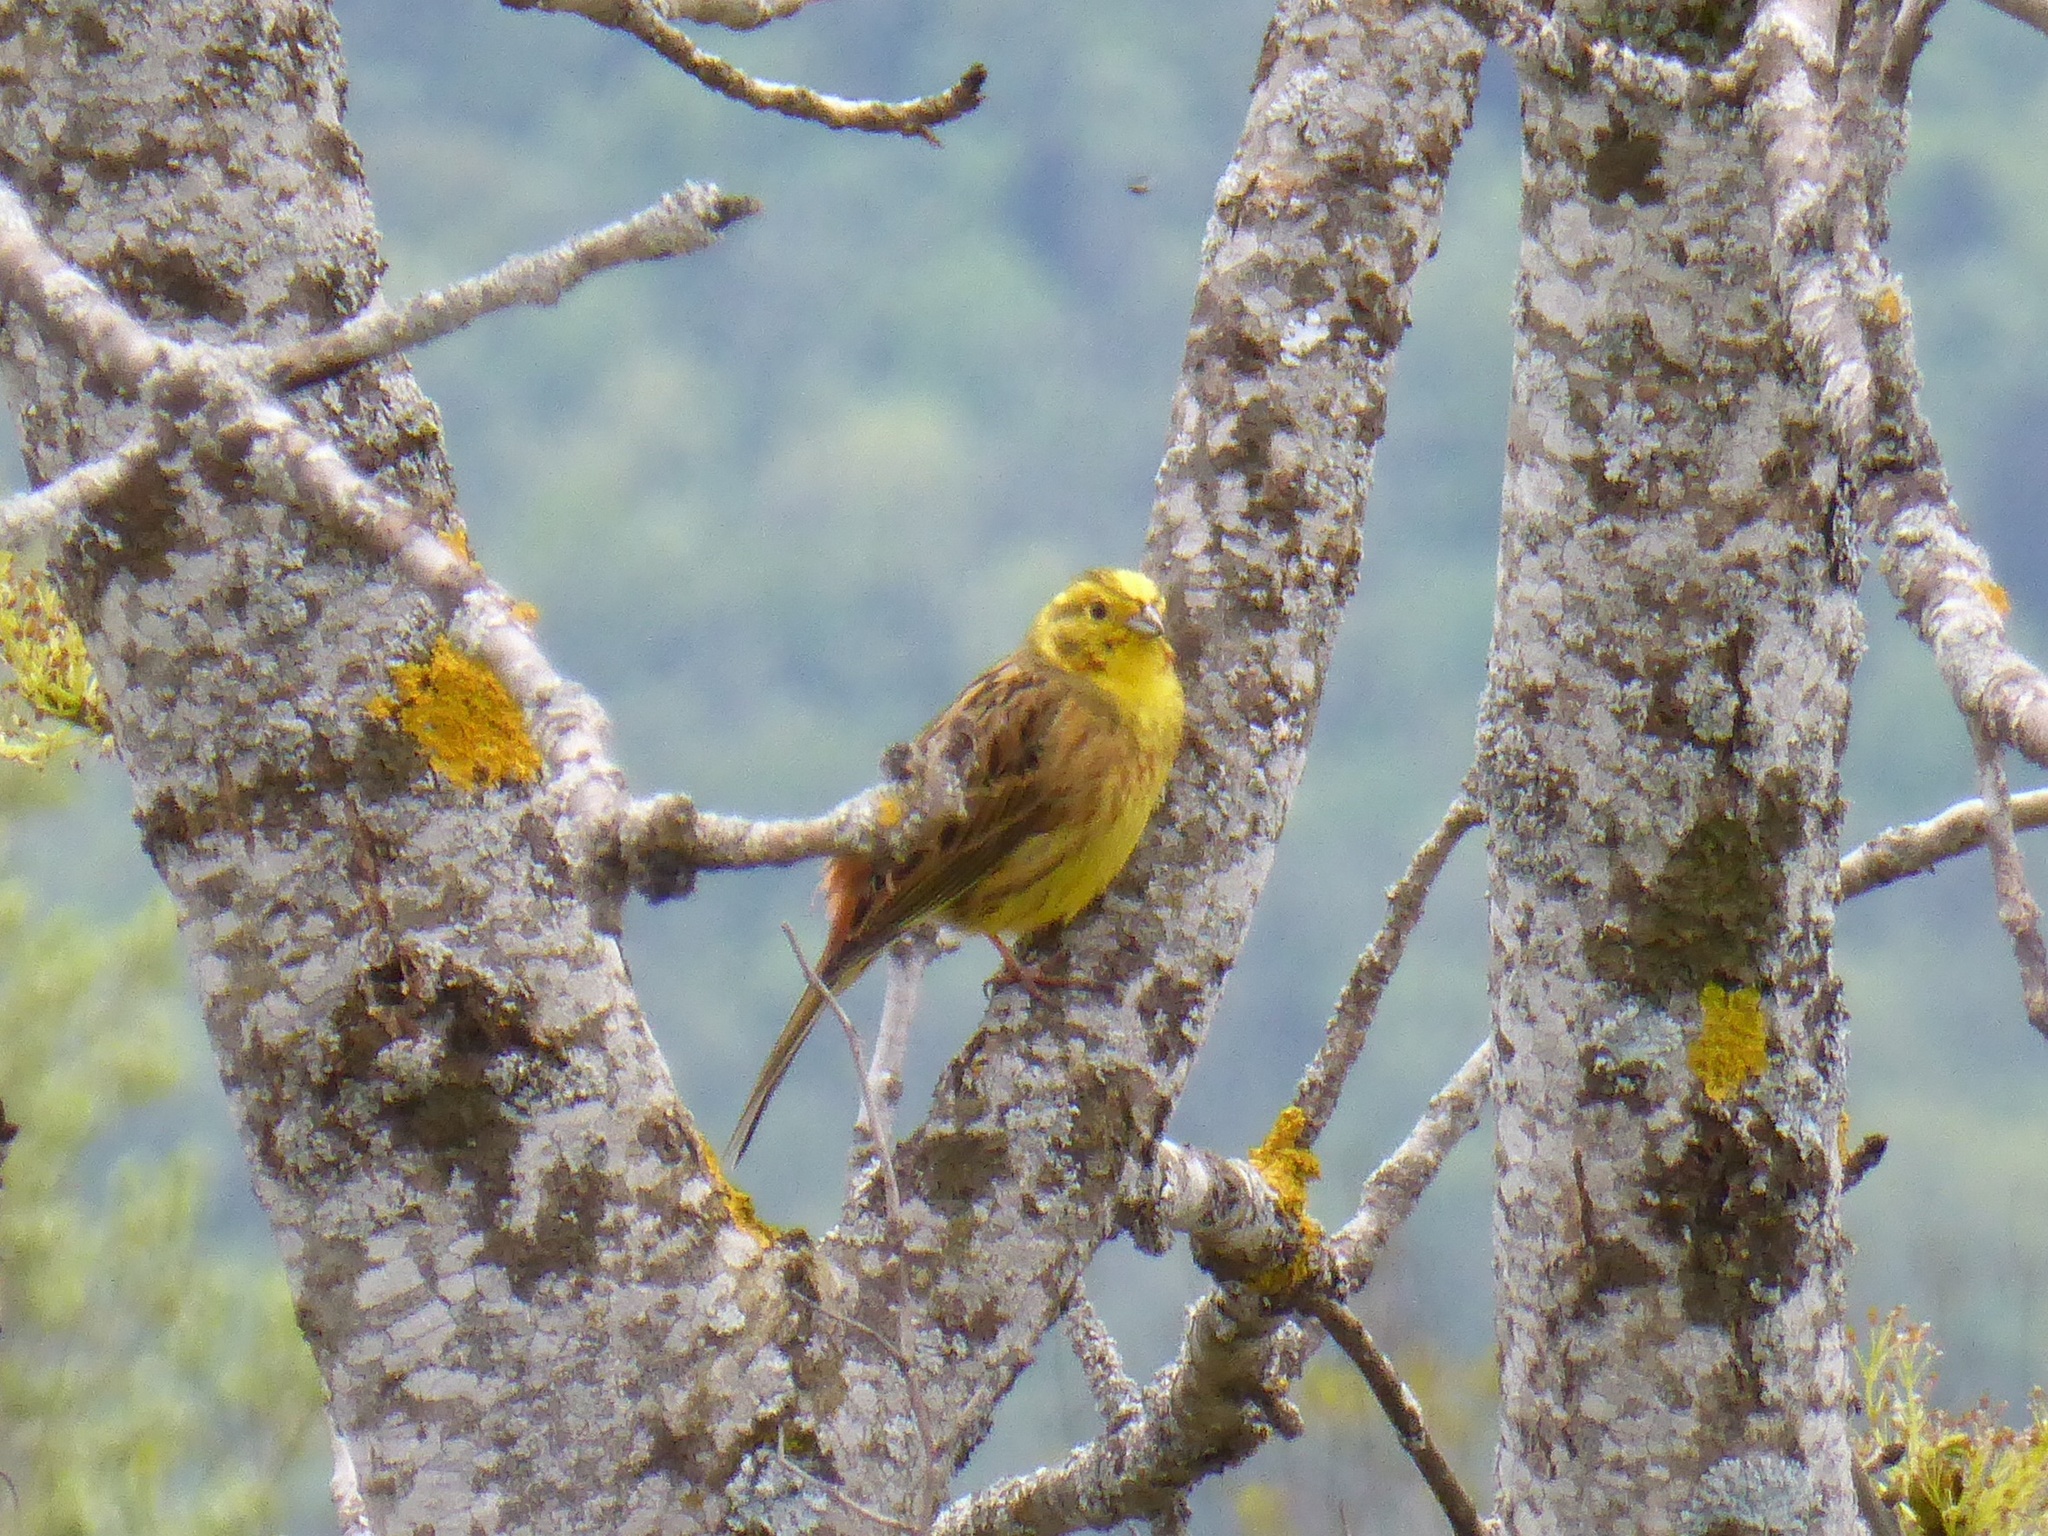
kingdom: Animalia
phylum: Chordata
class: Aves
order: Passeriformes
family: Emberizidae
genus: Emberiza
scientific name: Emberiza citrinella
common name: Yellowhammer
